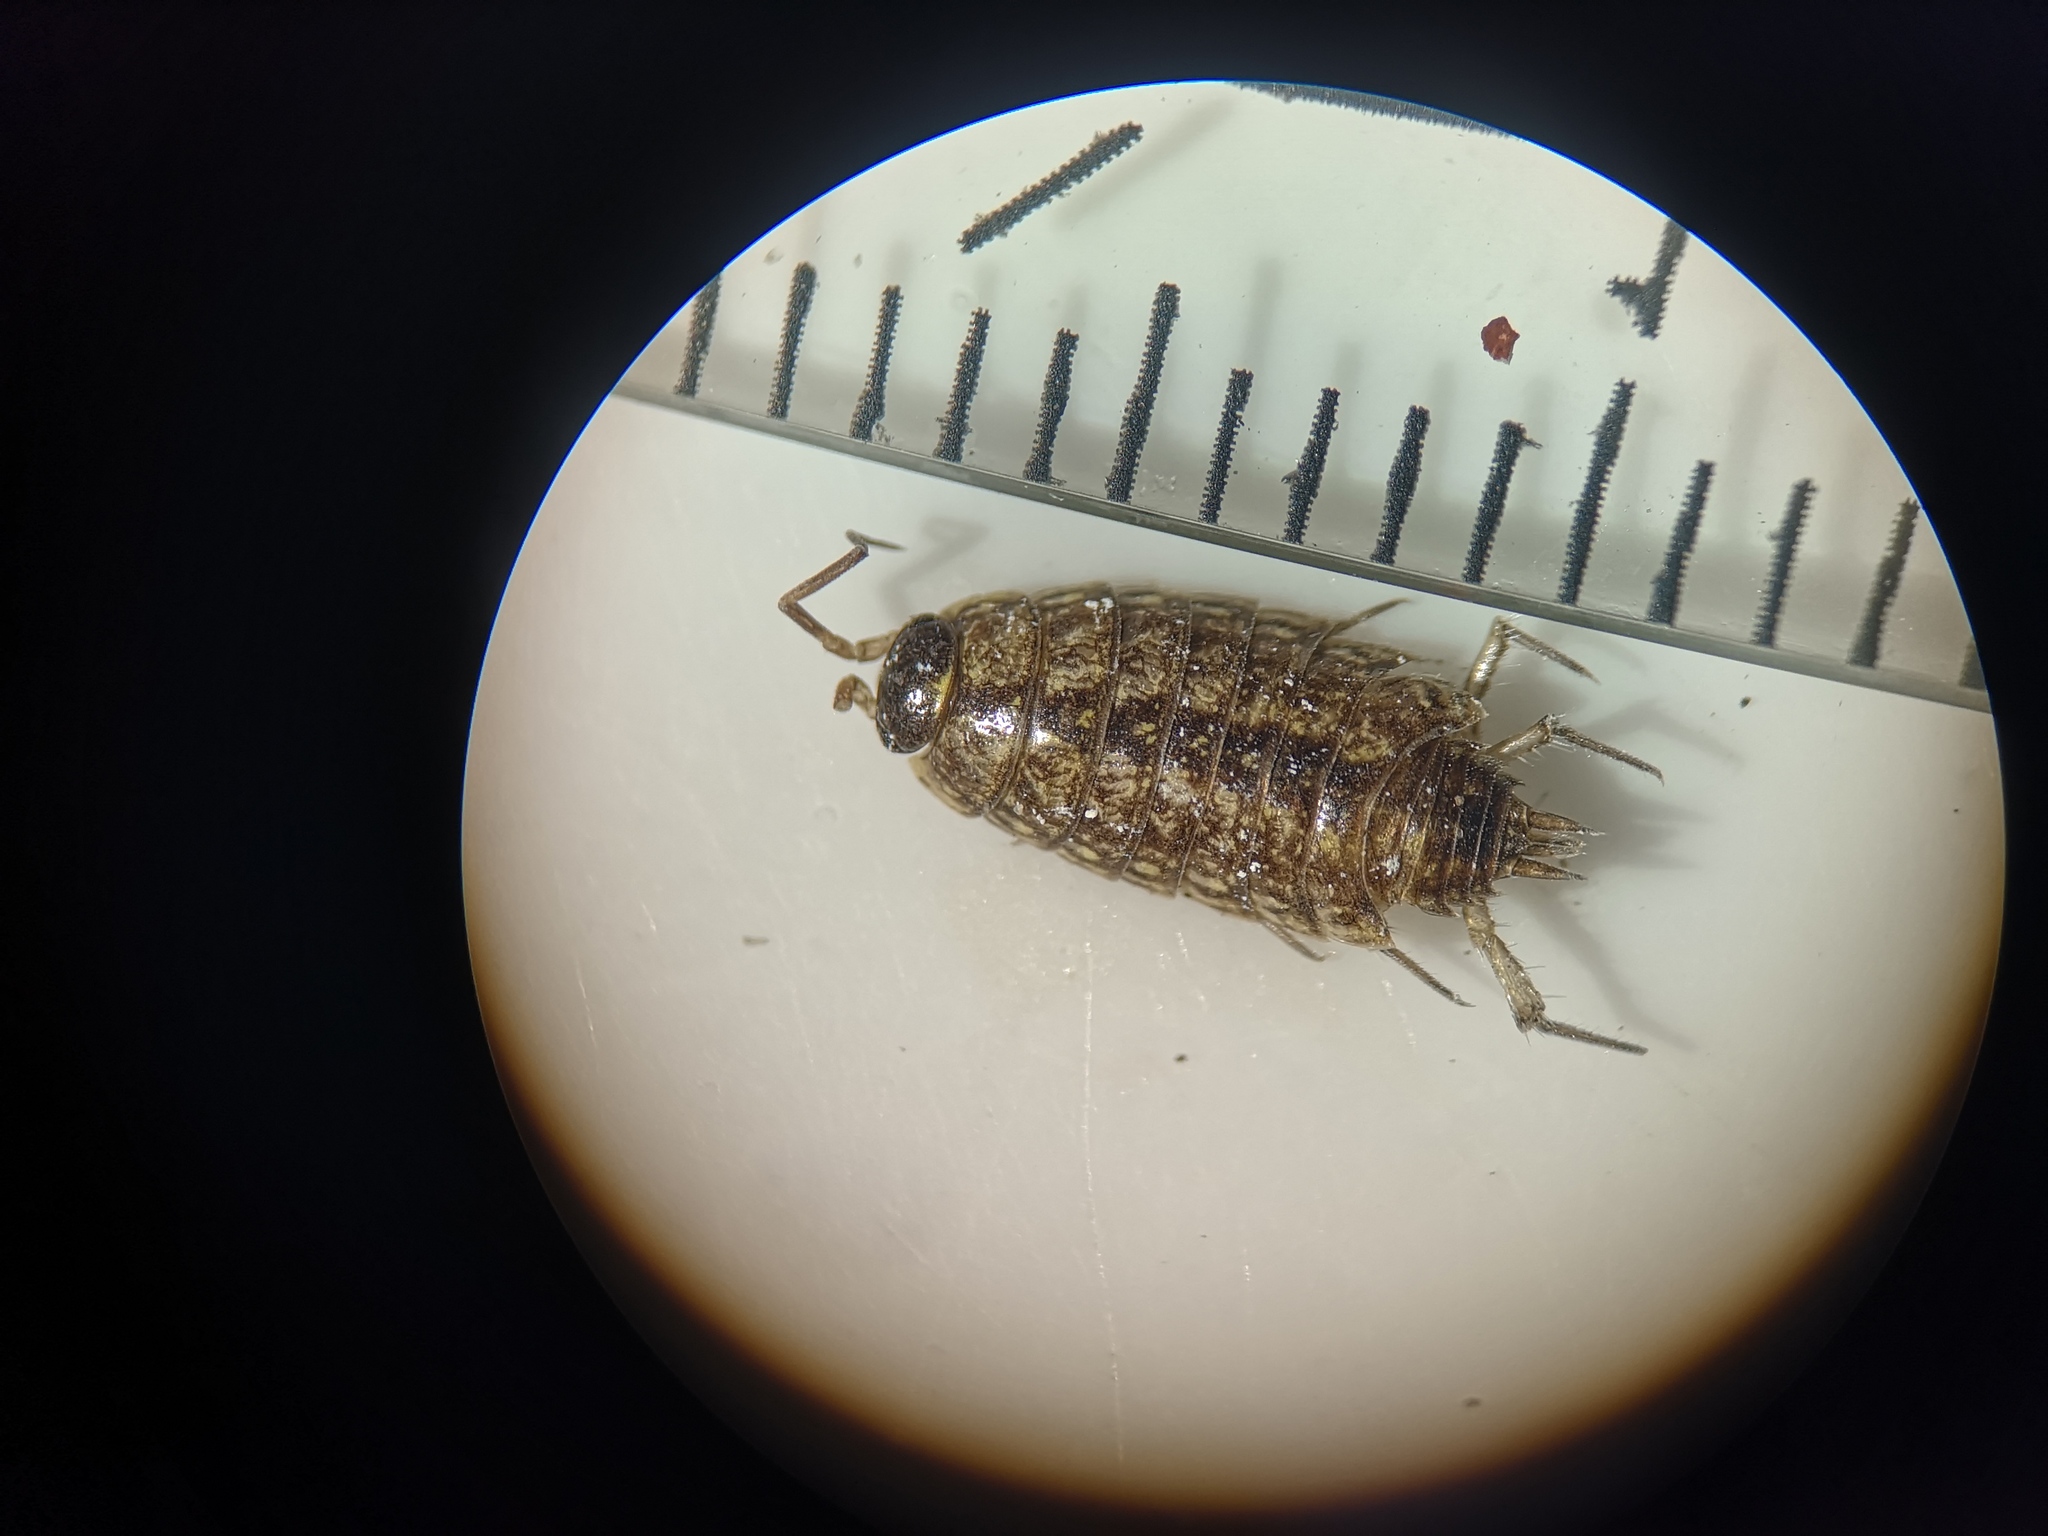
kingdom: Animalia
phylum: Arthropoda
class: Malacostraca
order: Isopoda
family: Philosciidae
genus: Philoscia
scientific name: Philoscia muscorum
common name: Common striped woodlouse
